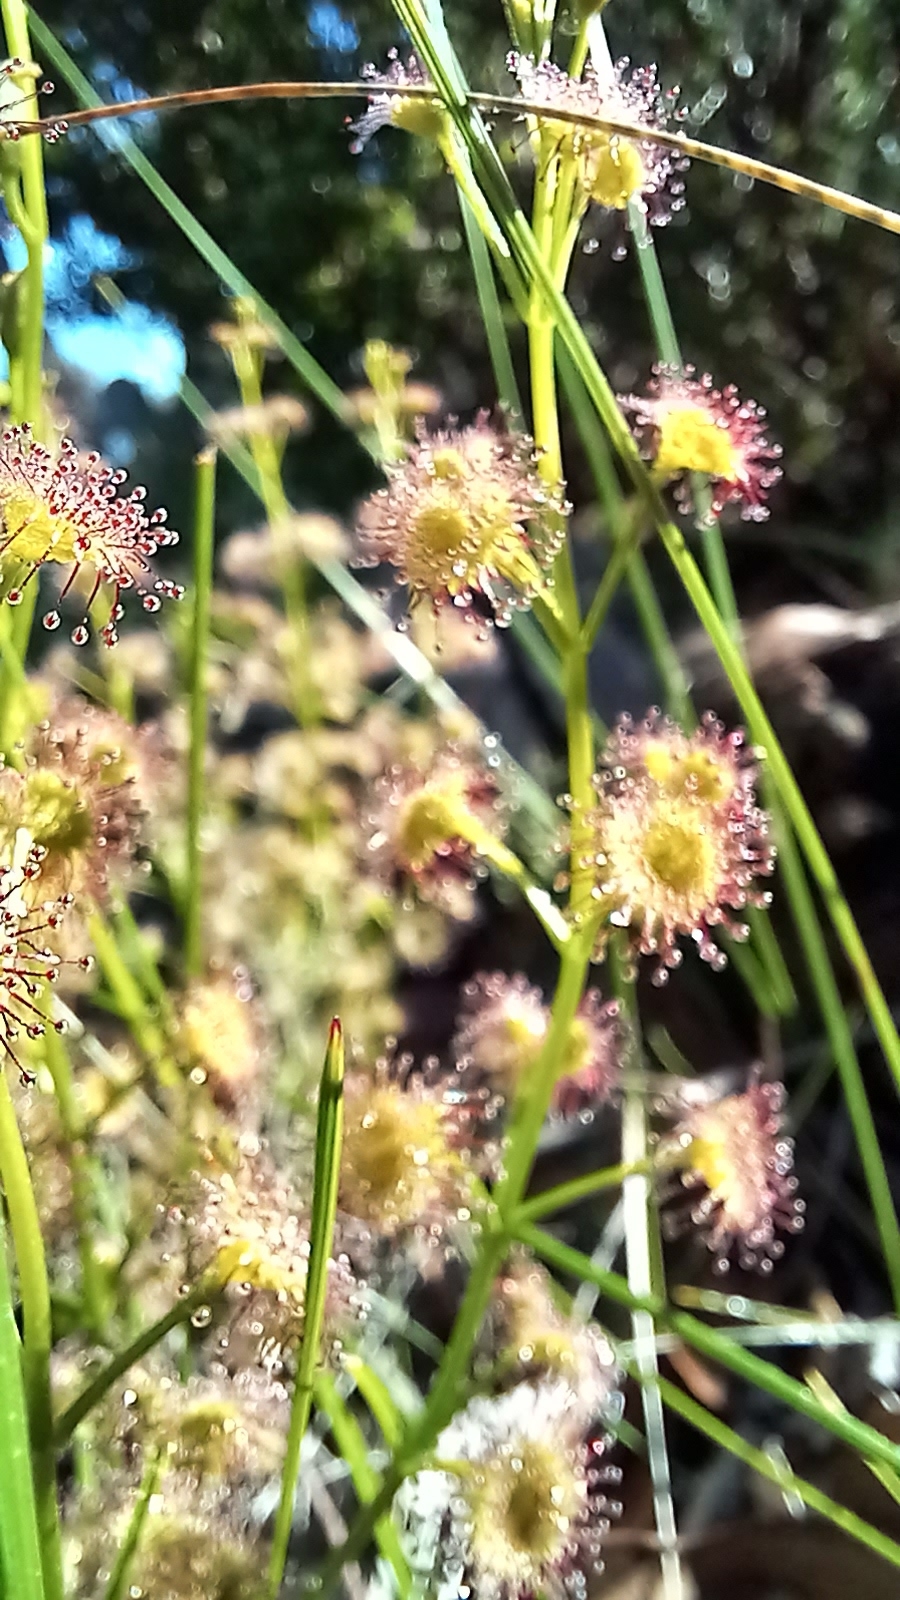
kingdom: Plantae
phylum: Tracheophyta
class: Magnoliopsida
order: Caryophyllales
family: Droseraceae
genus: Drosera
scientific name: Drosera stolonifera
